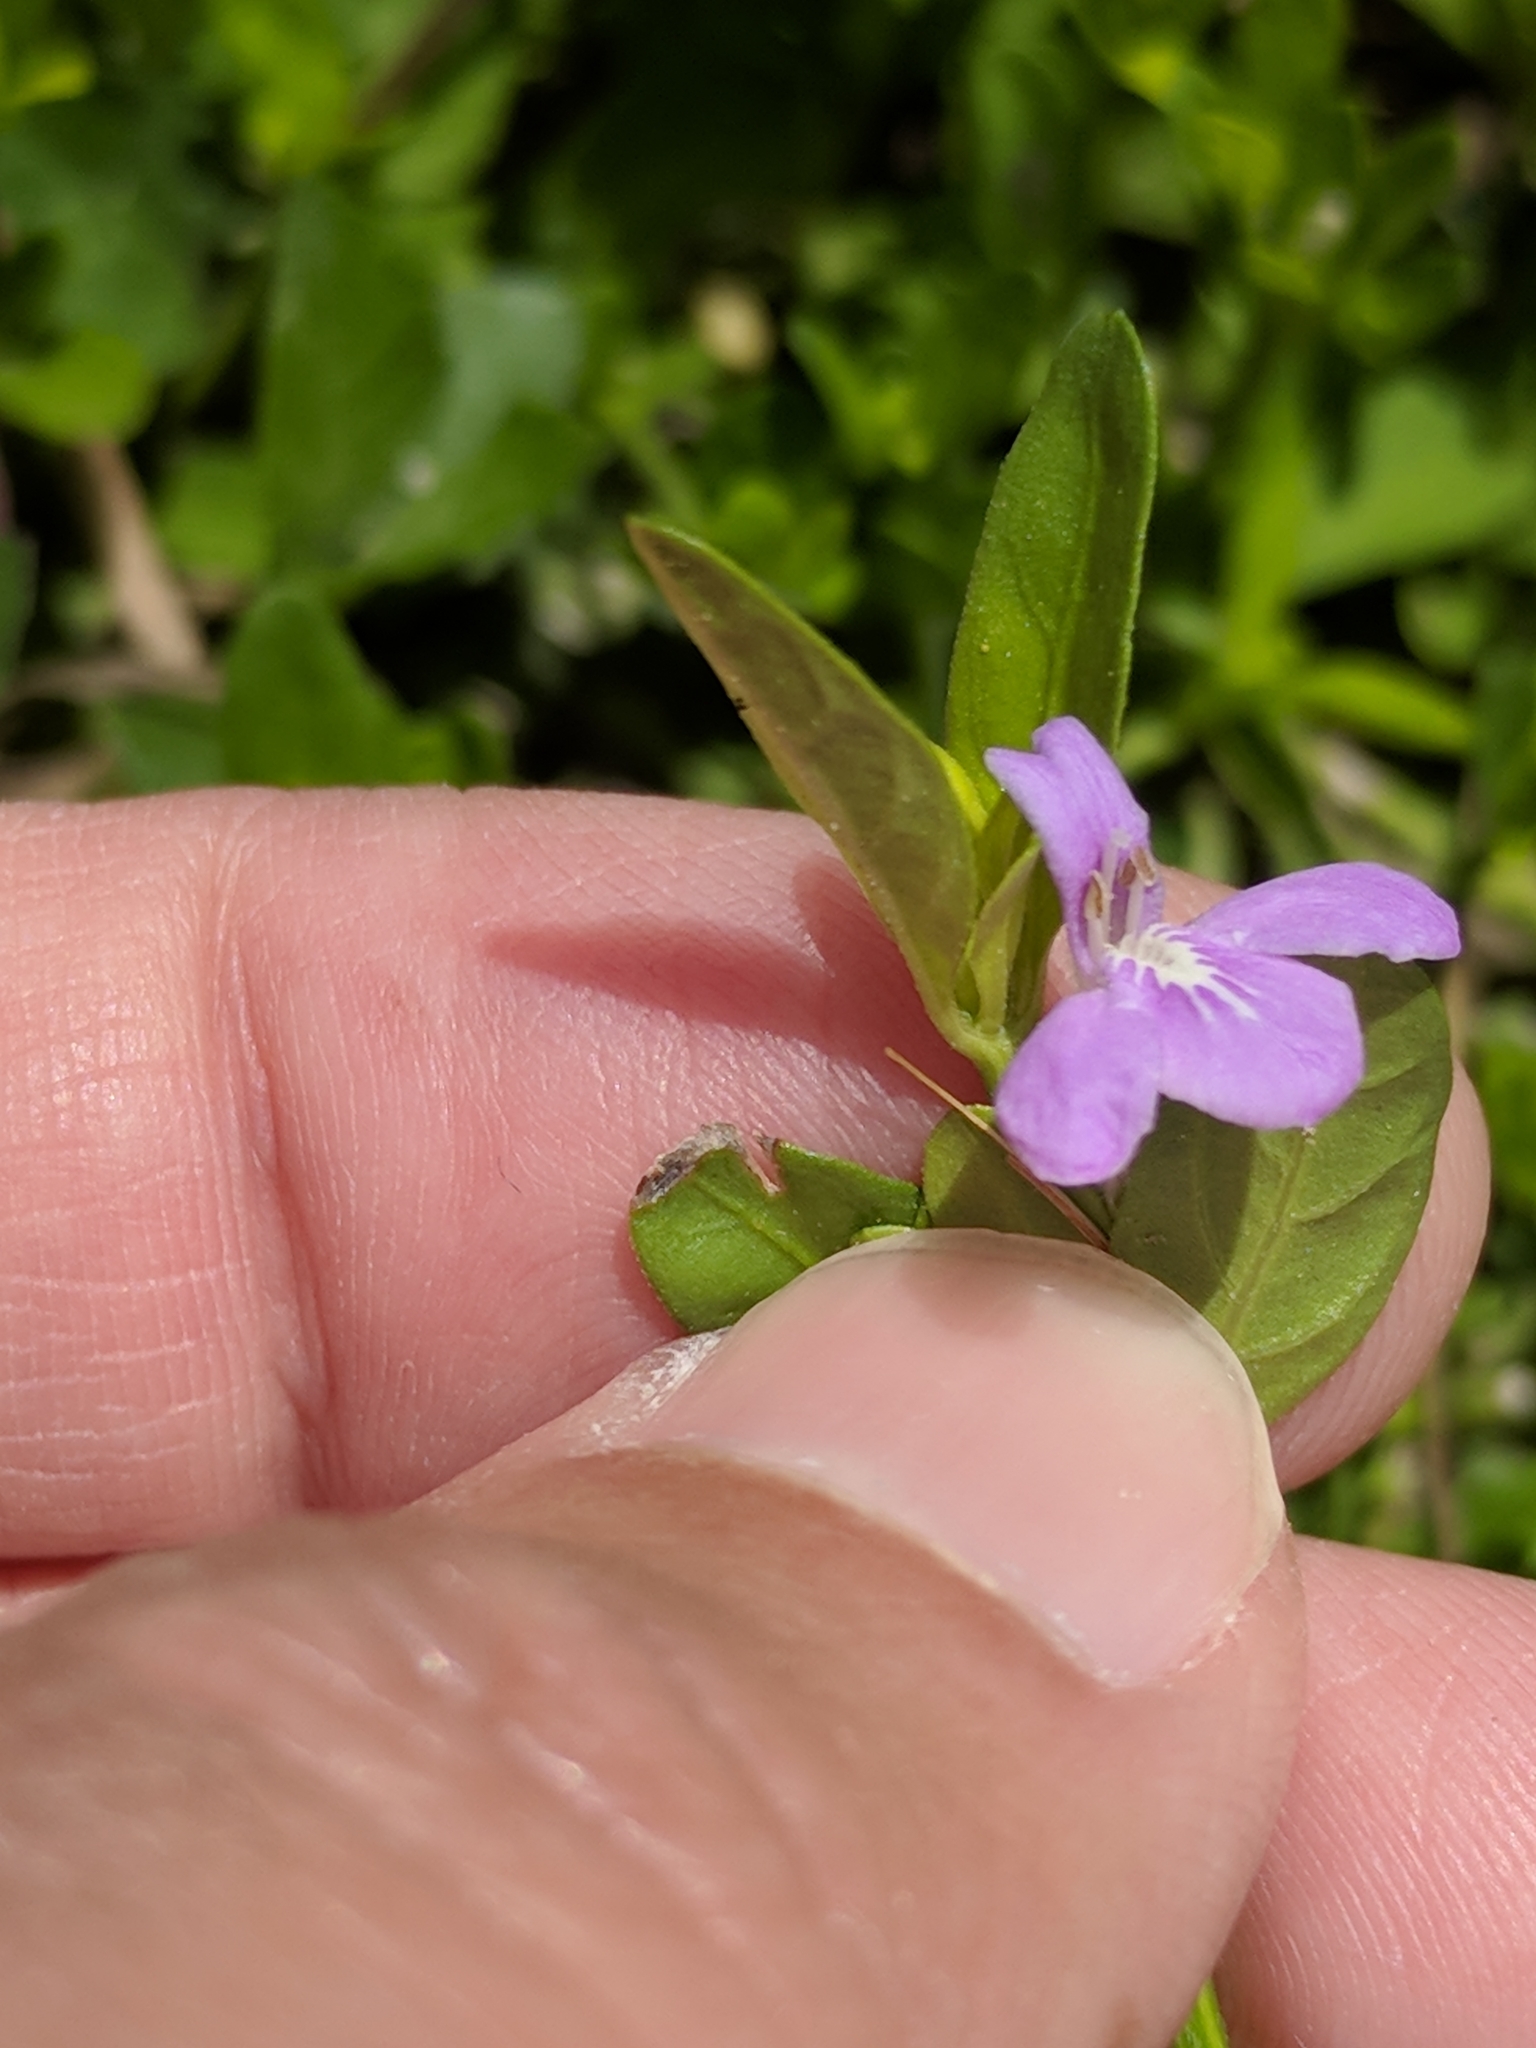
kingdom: Plantae
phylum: Tracheophyta
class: Magnoliopsida
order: Lamiales
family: Acanthaceae
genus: Justicia
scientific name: Justicia pilosella
